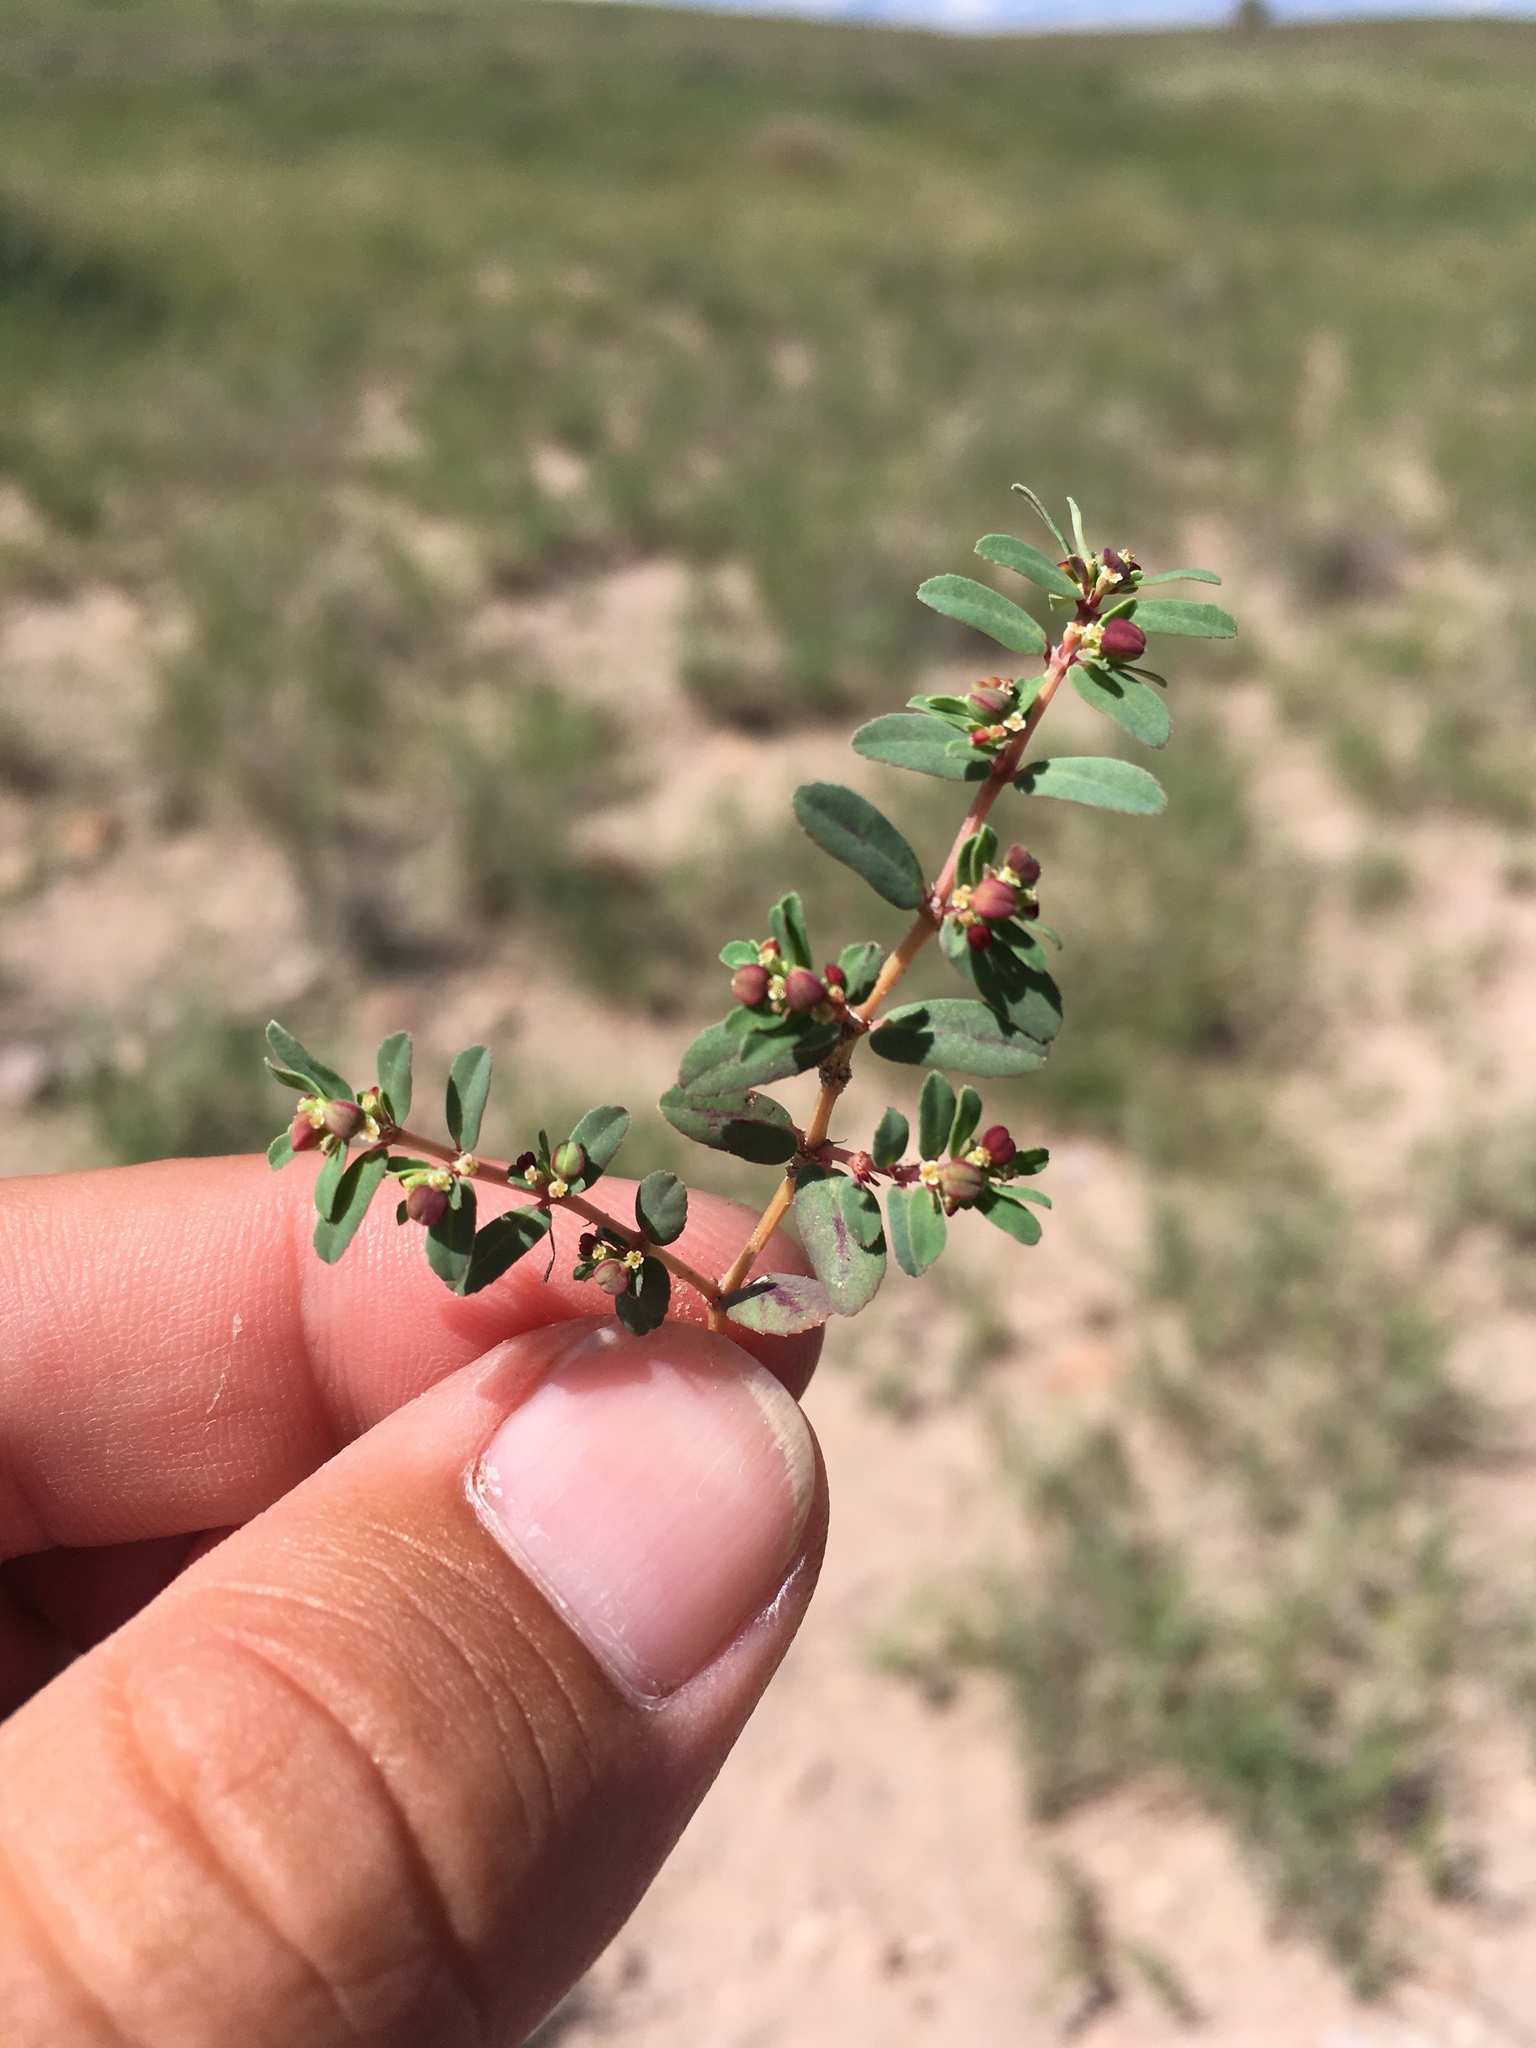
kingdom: Plantae
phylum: Tracheophyta
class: Magnoliopsida
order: Malpighiales
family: Euphorbiaceae
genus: Euphorbia
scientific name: Euphorbia serpillifolia
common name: Thyme-leaf spurge
